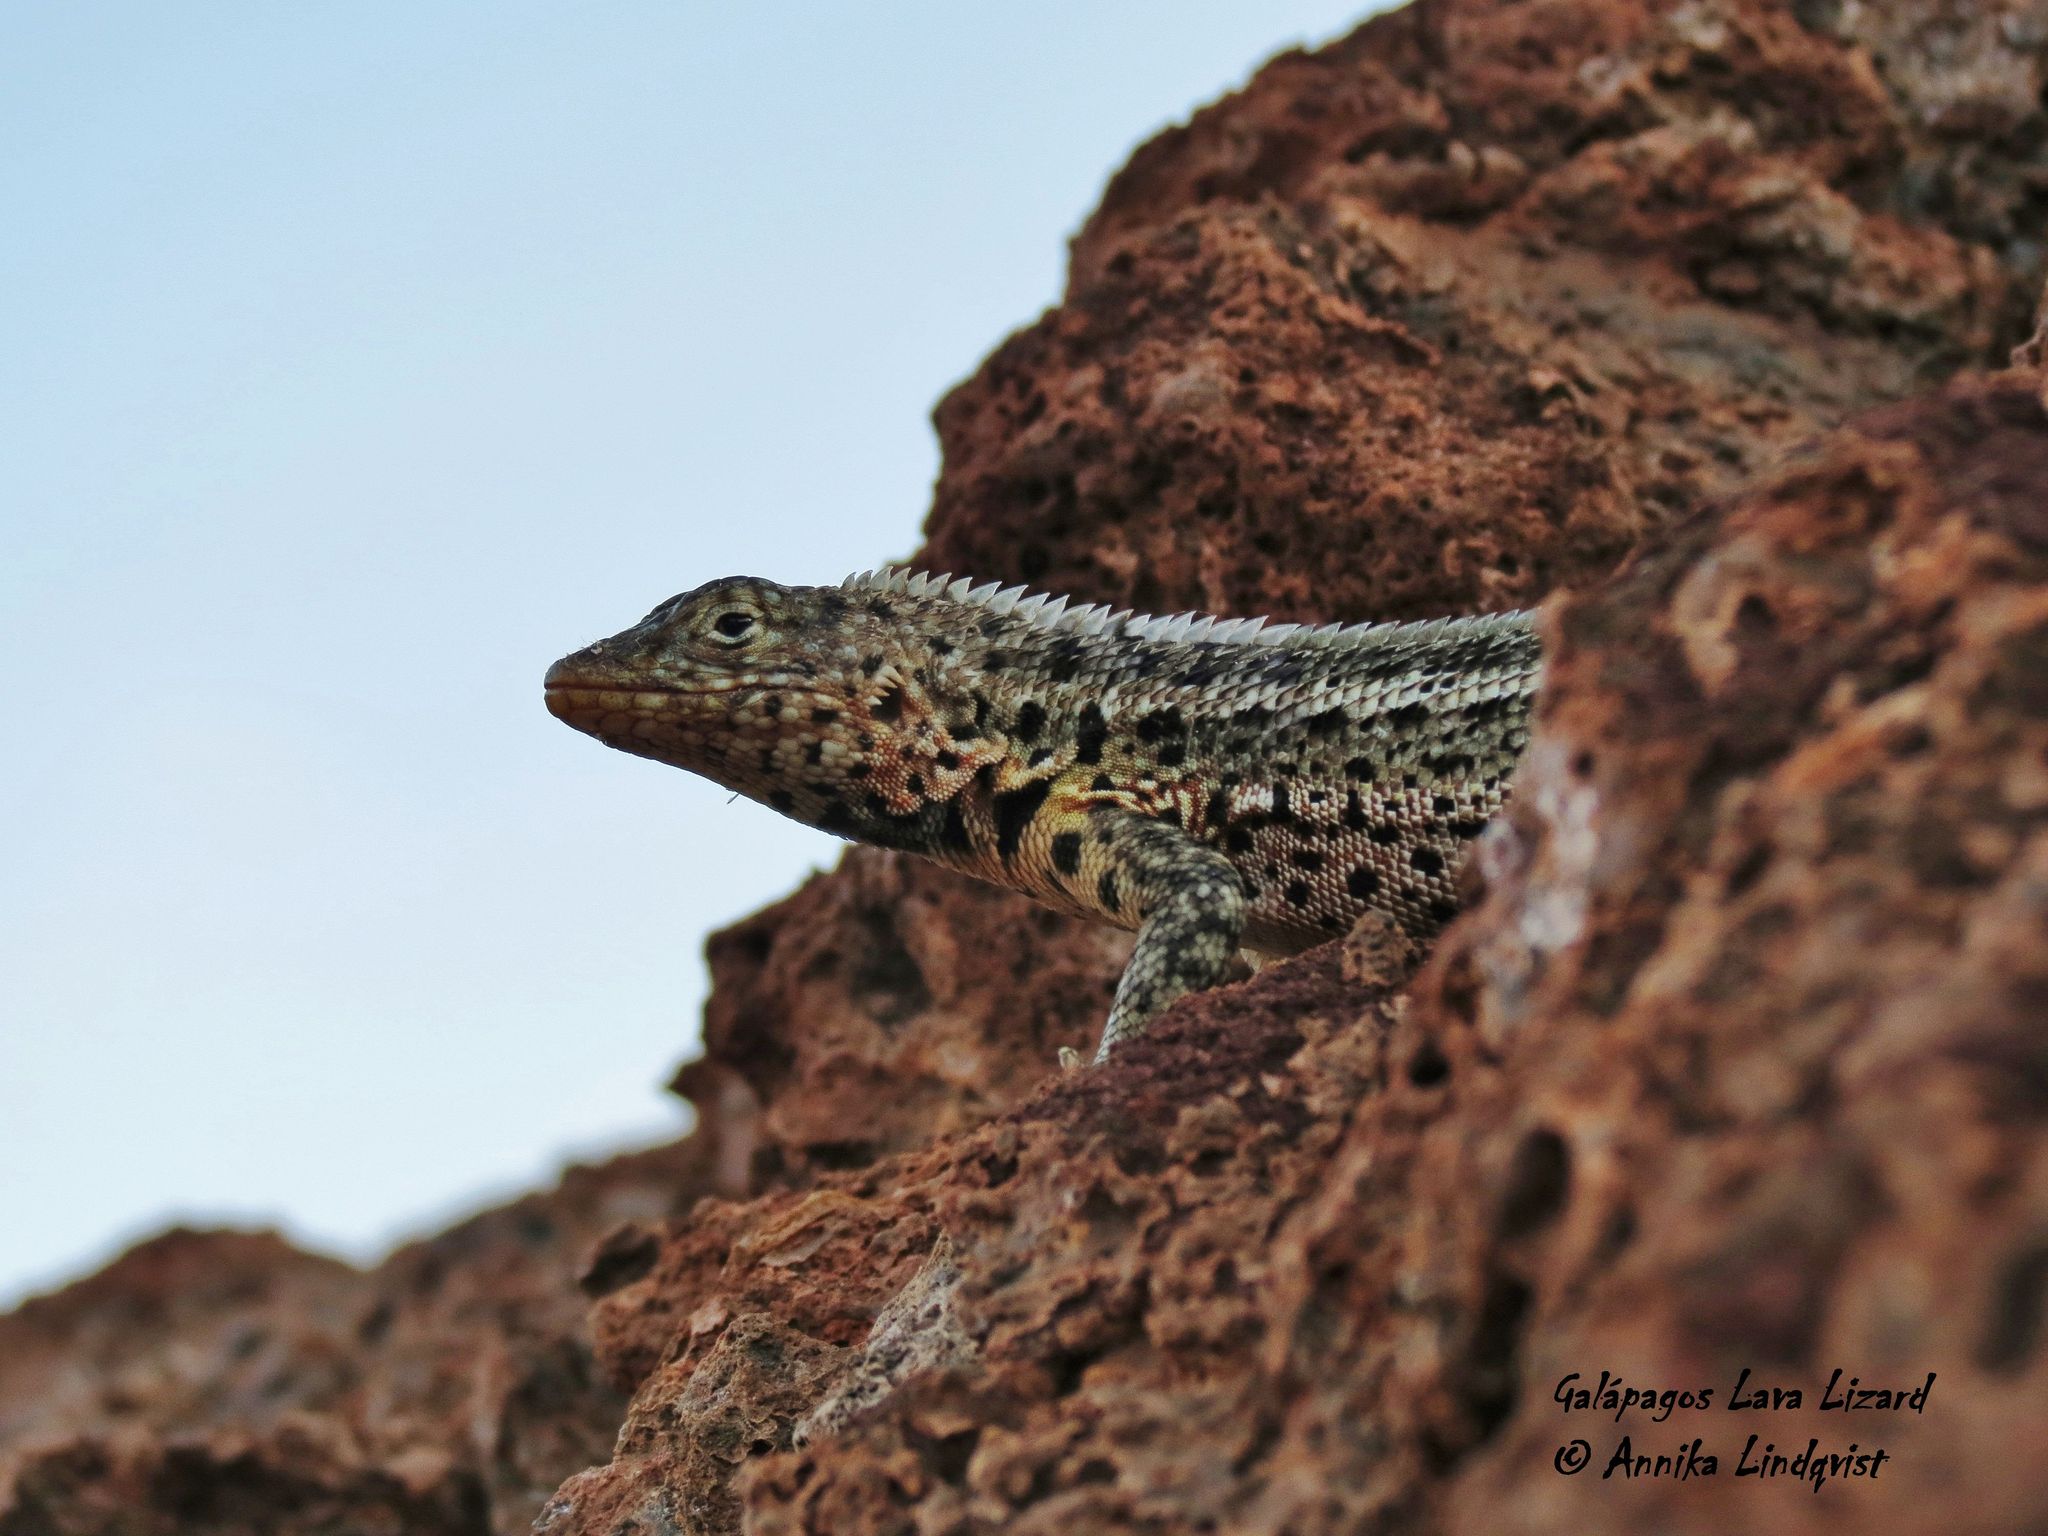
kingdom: Animalia
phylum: Chordata
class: Squamata
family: Tropiduridae
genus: Microlophus
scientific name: Microlophus jacobii
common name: Santiago lava lizard
